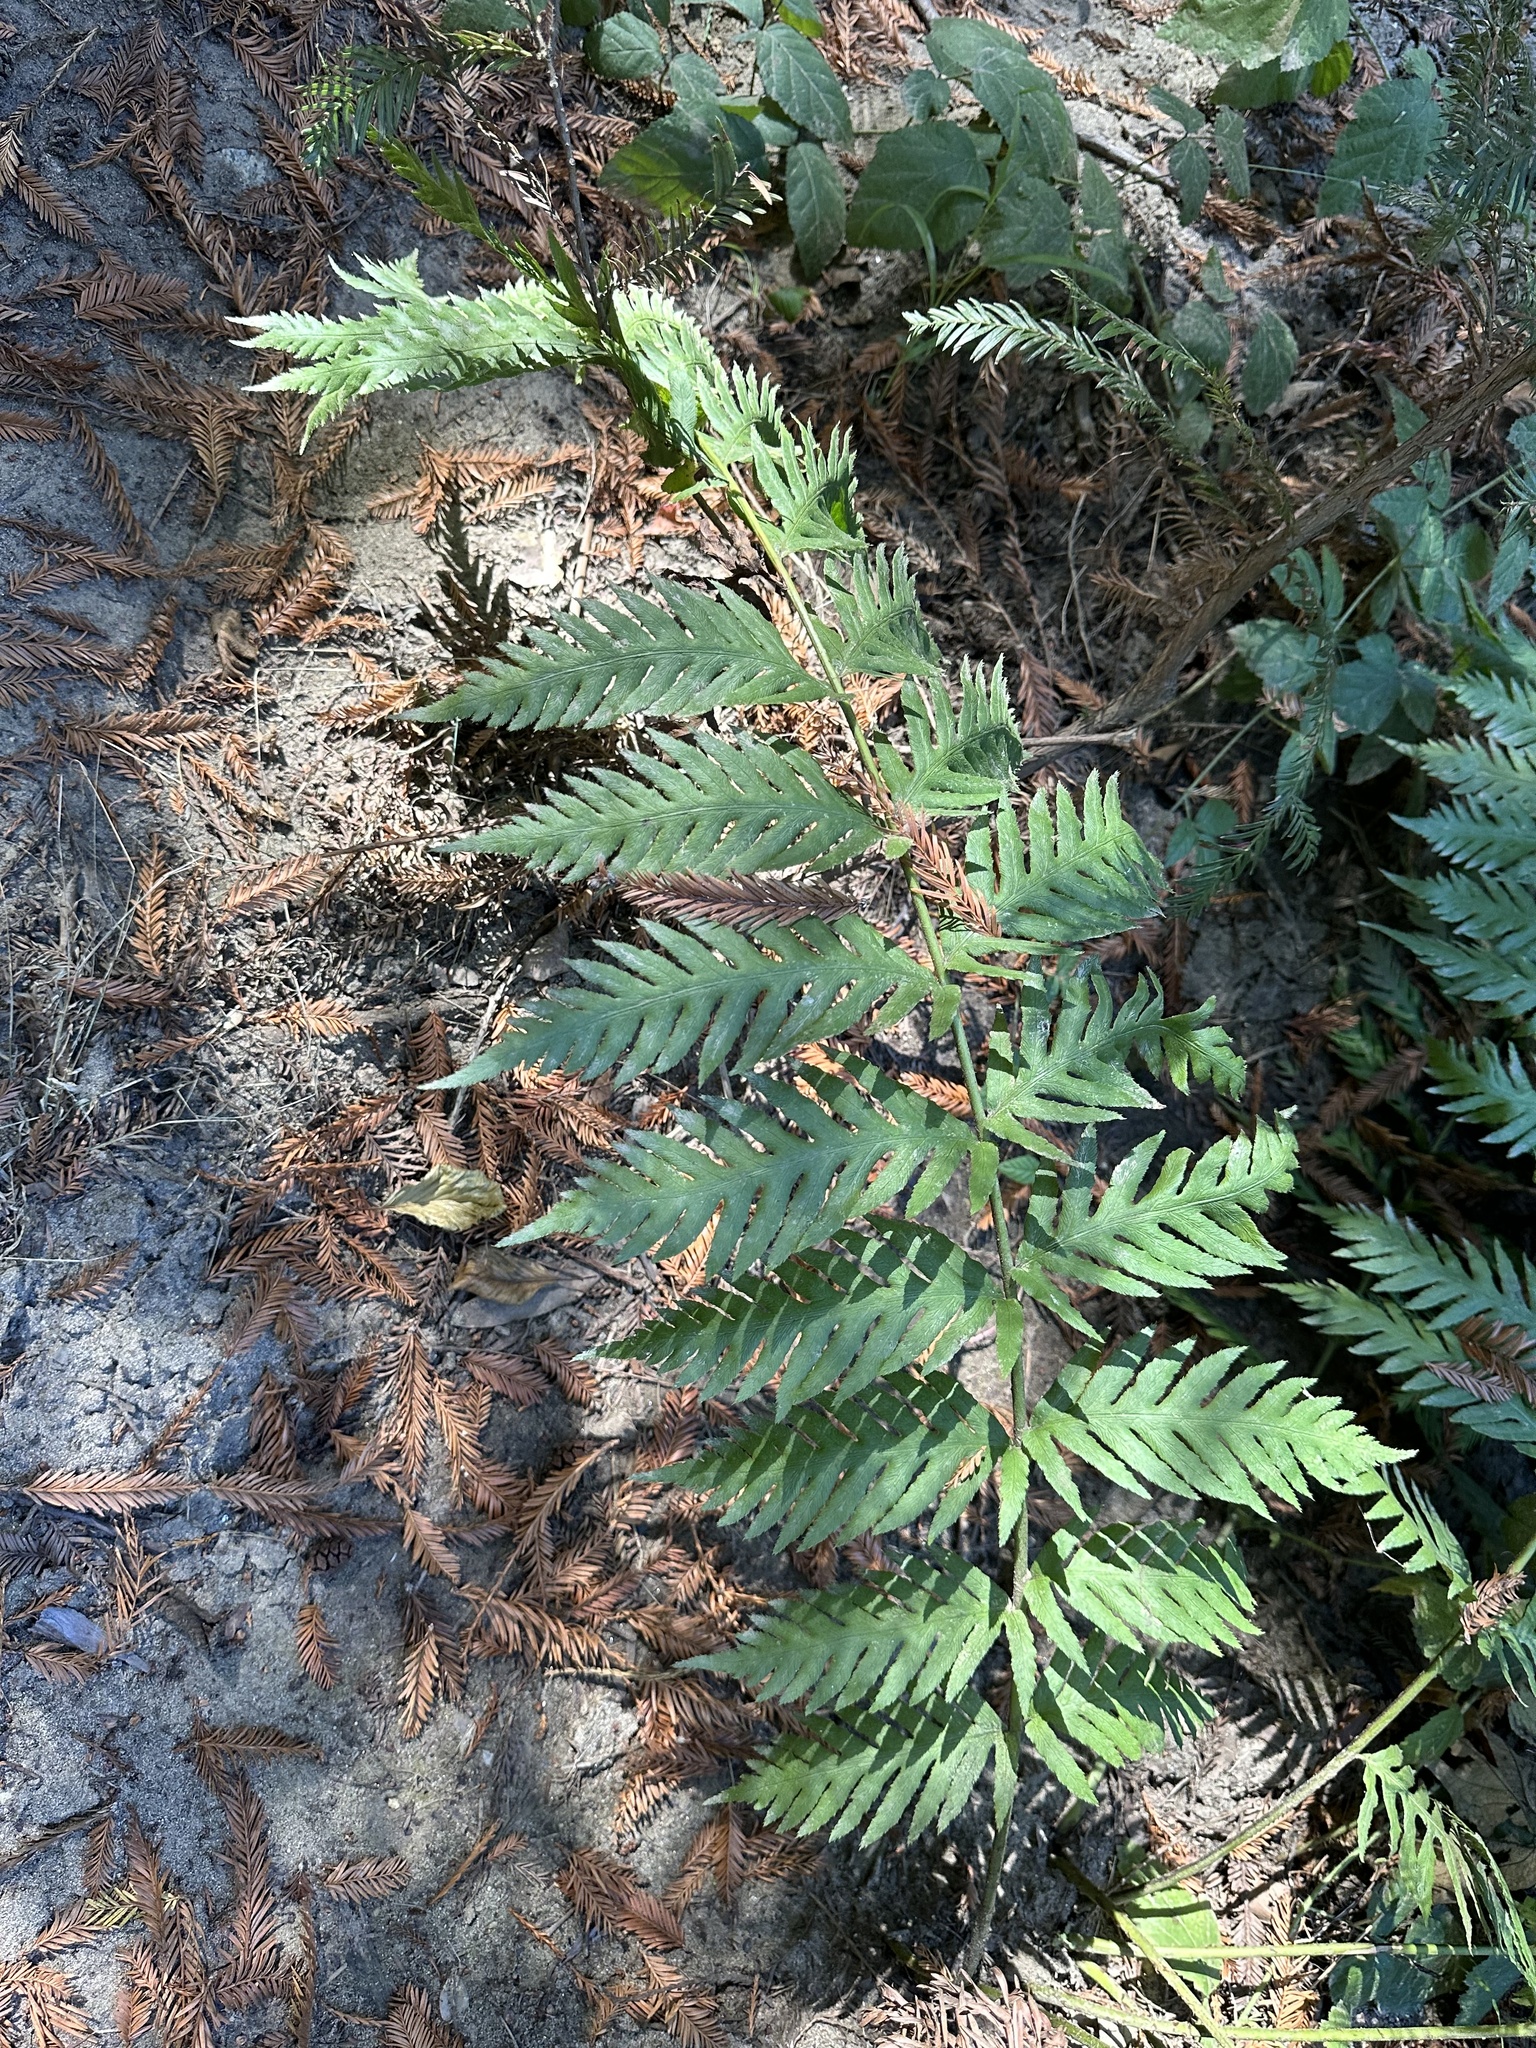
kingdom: Plantae
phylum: Tracheophyta
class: Polypodiopsida
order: Polypodiales
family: Blechnaceae
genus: Woodwardia
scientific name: Woodwardia fimbriata
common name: Giant chain fern
